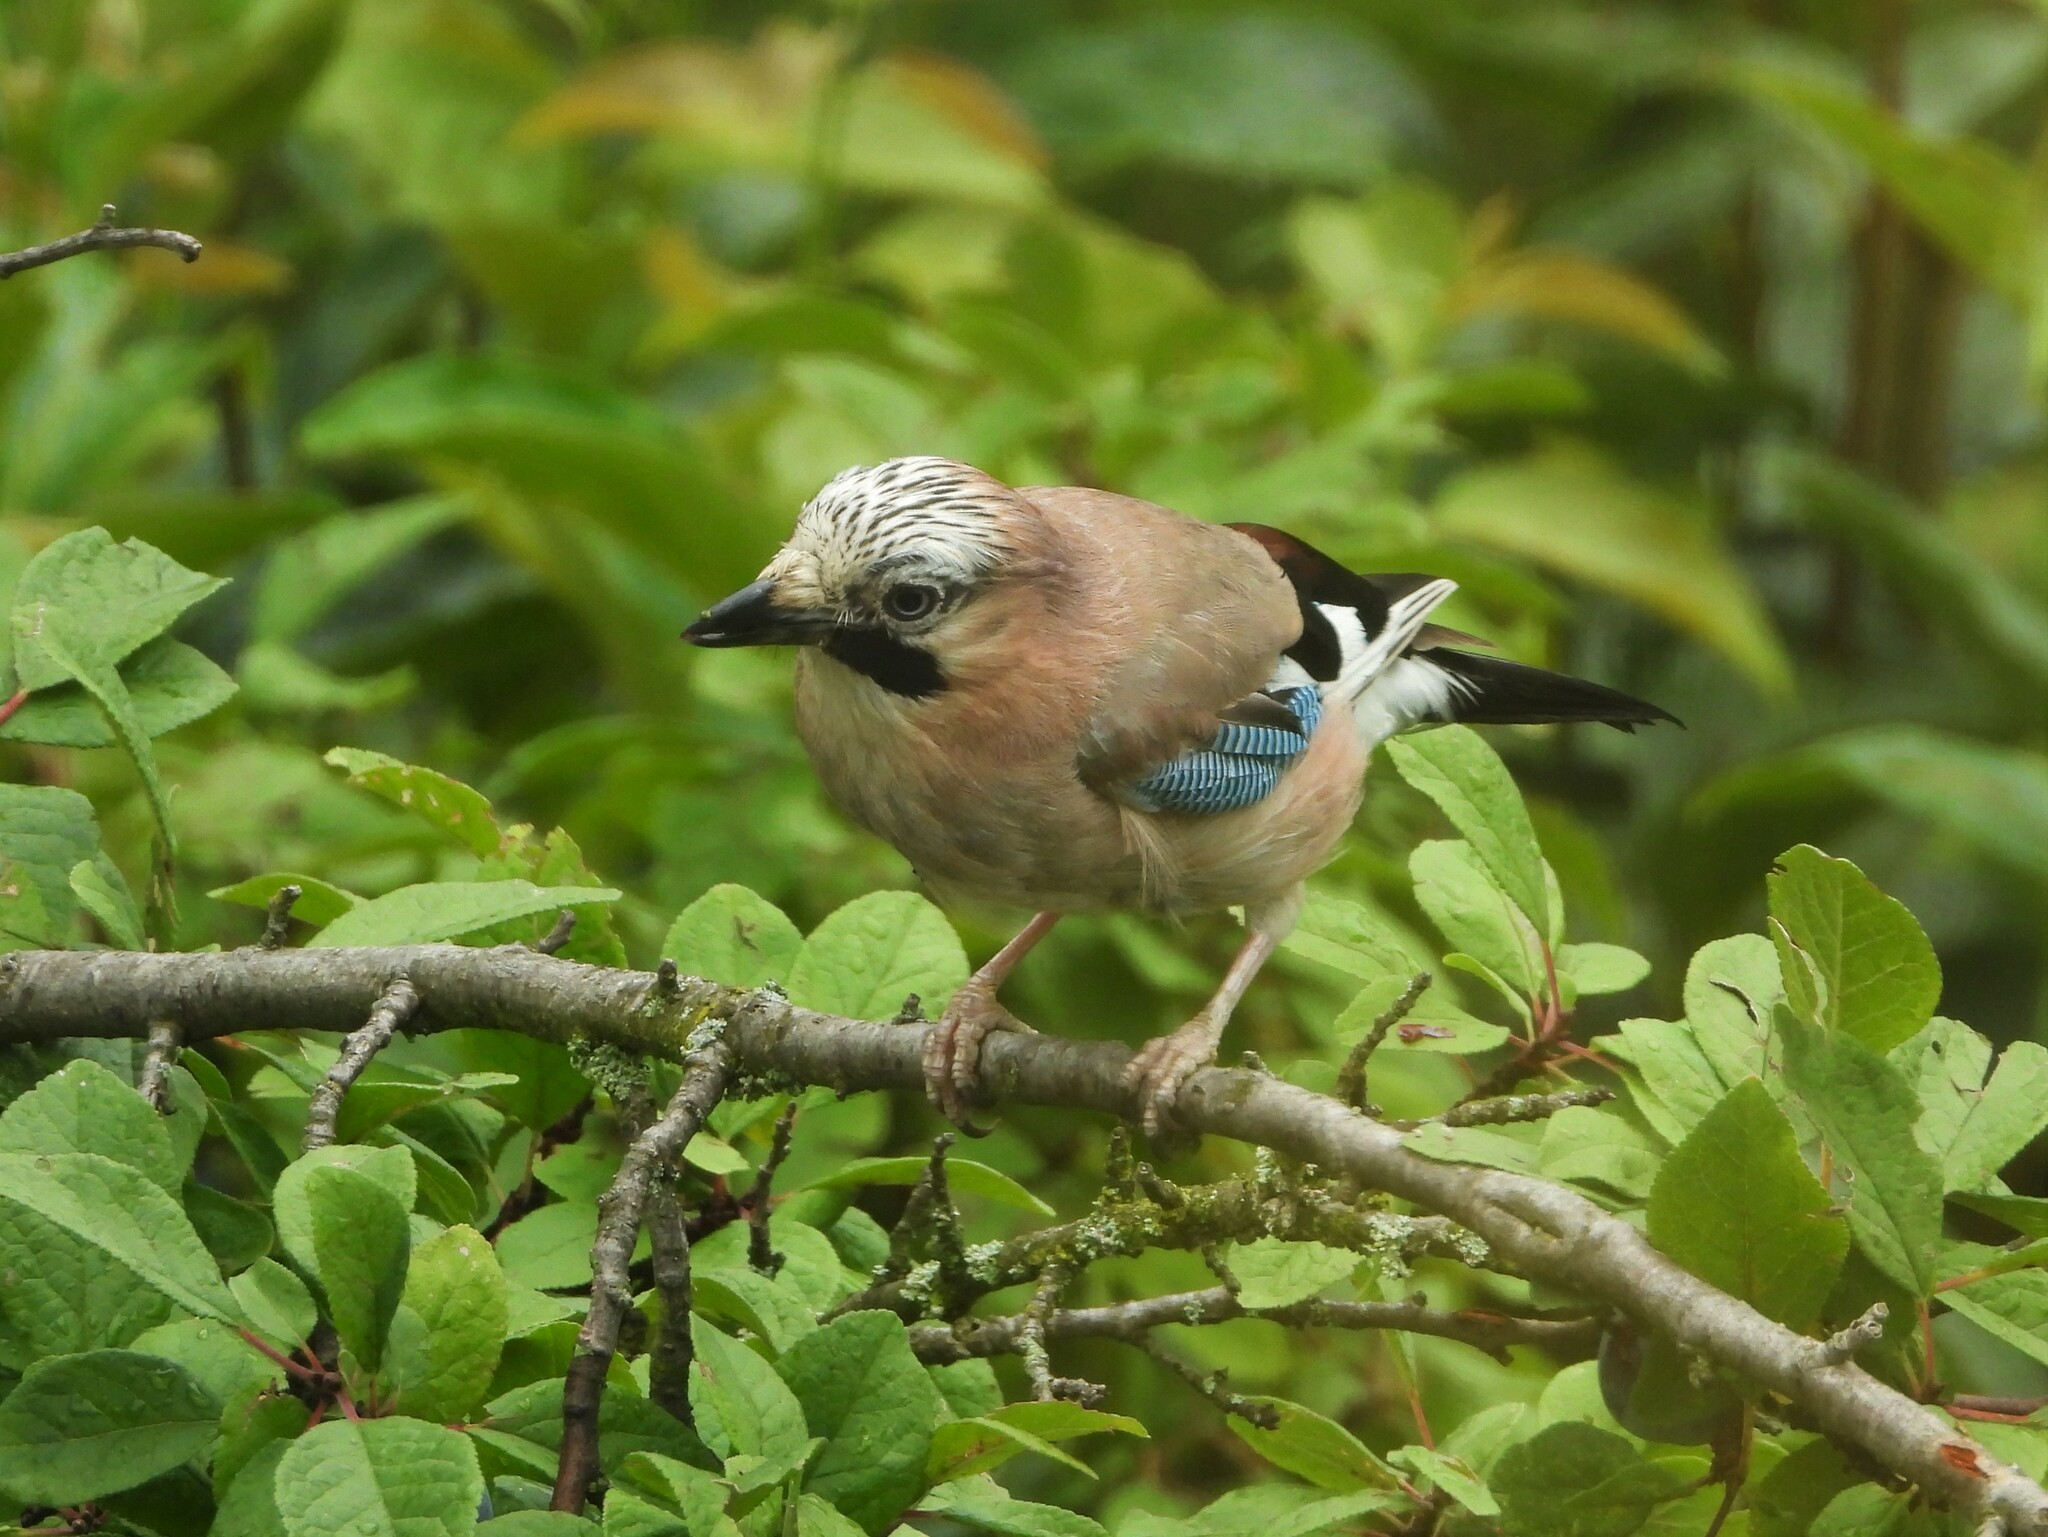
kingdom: Animalia
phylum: Chordata
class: Aves
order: Passeriformes
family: Corvidae
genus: Garrulus
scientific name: Garrulus glandarius
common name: Eurasian jay
